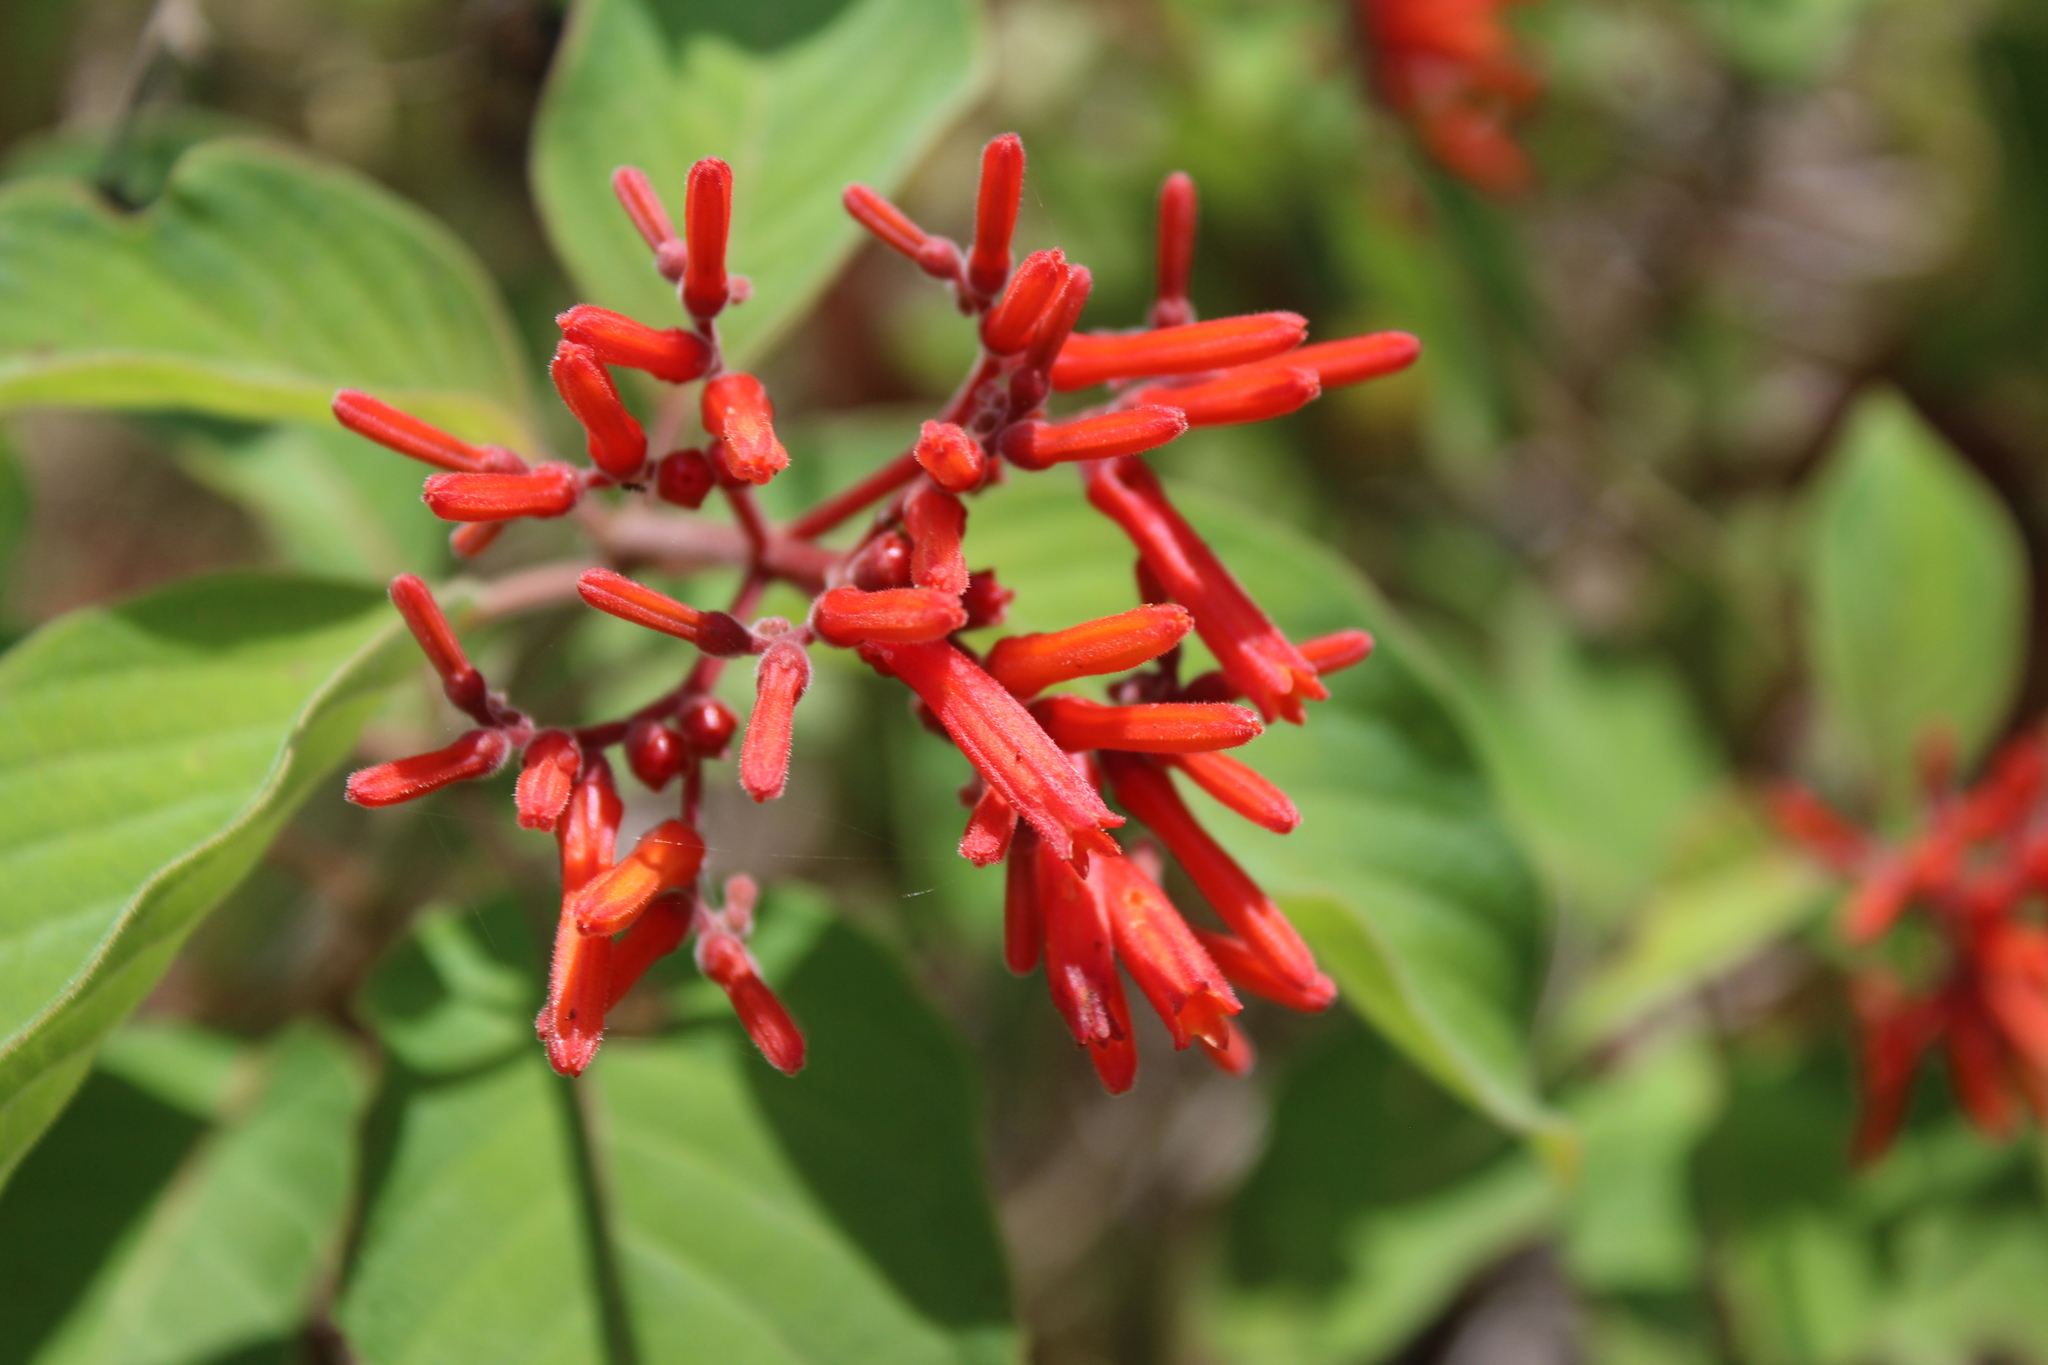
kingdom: Plantae
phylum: Tracheophyta
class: Magnoliopsida
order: Gentianales
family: Rubiaceae
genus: Hamelia
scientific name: Hamelia patens
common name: Redhead
